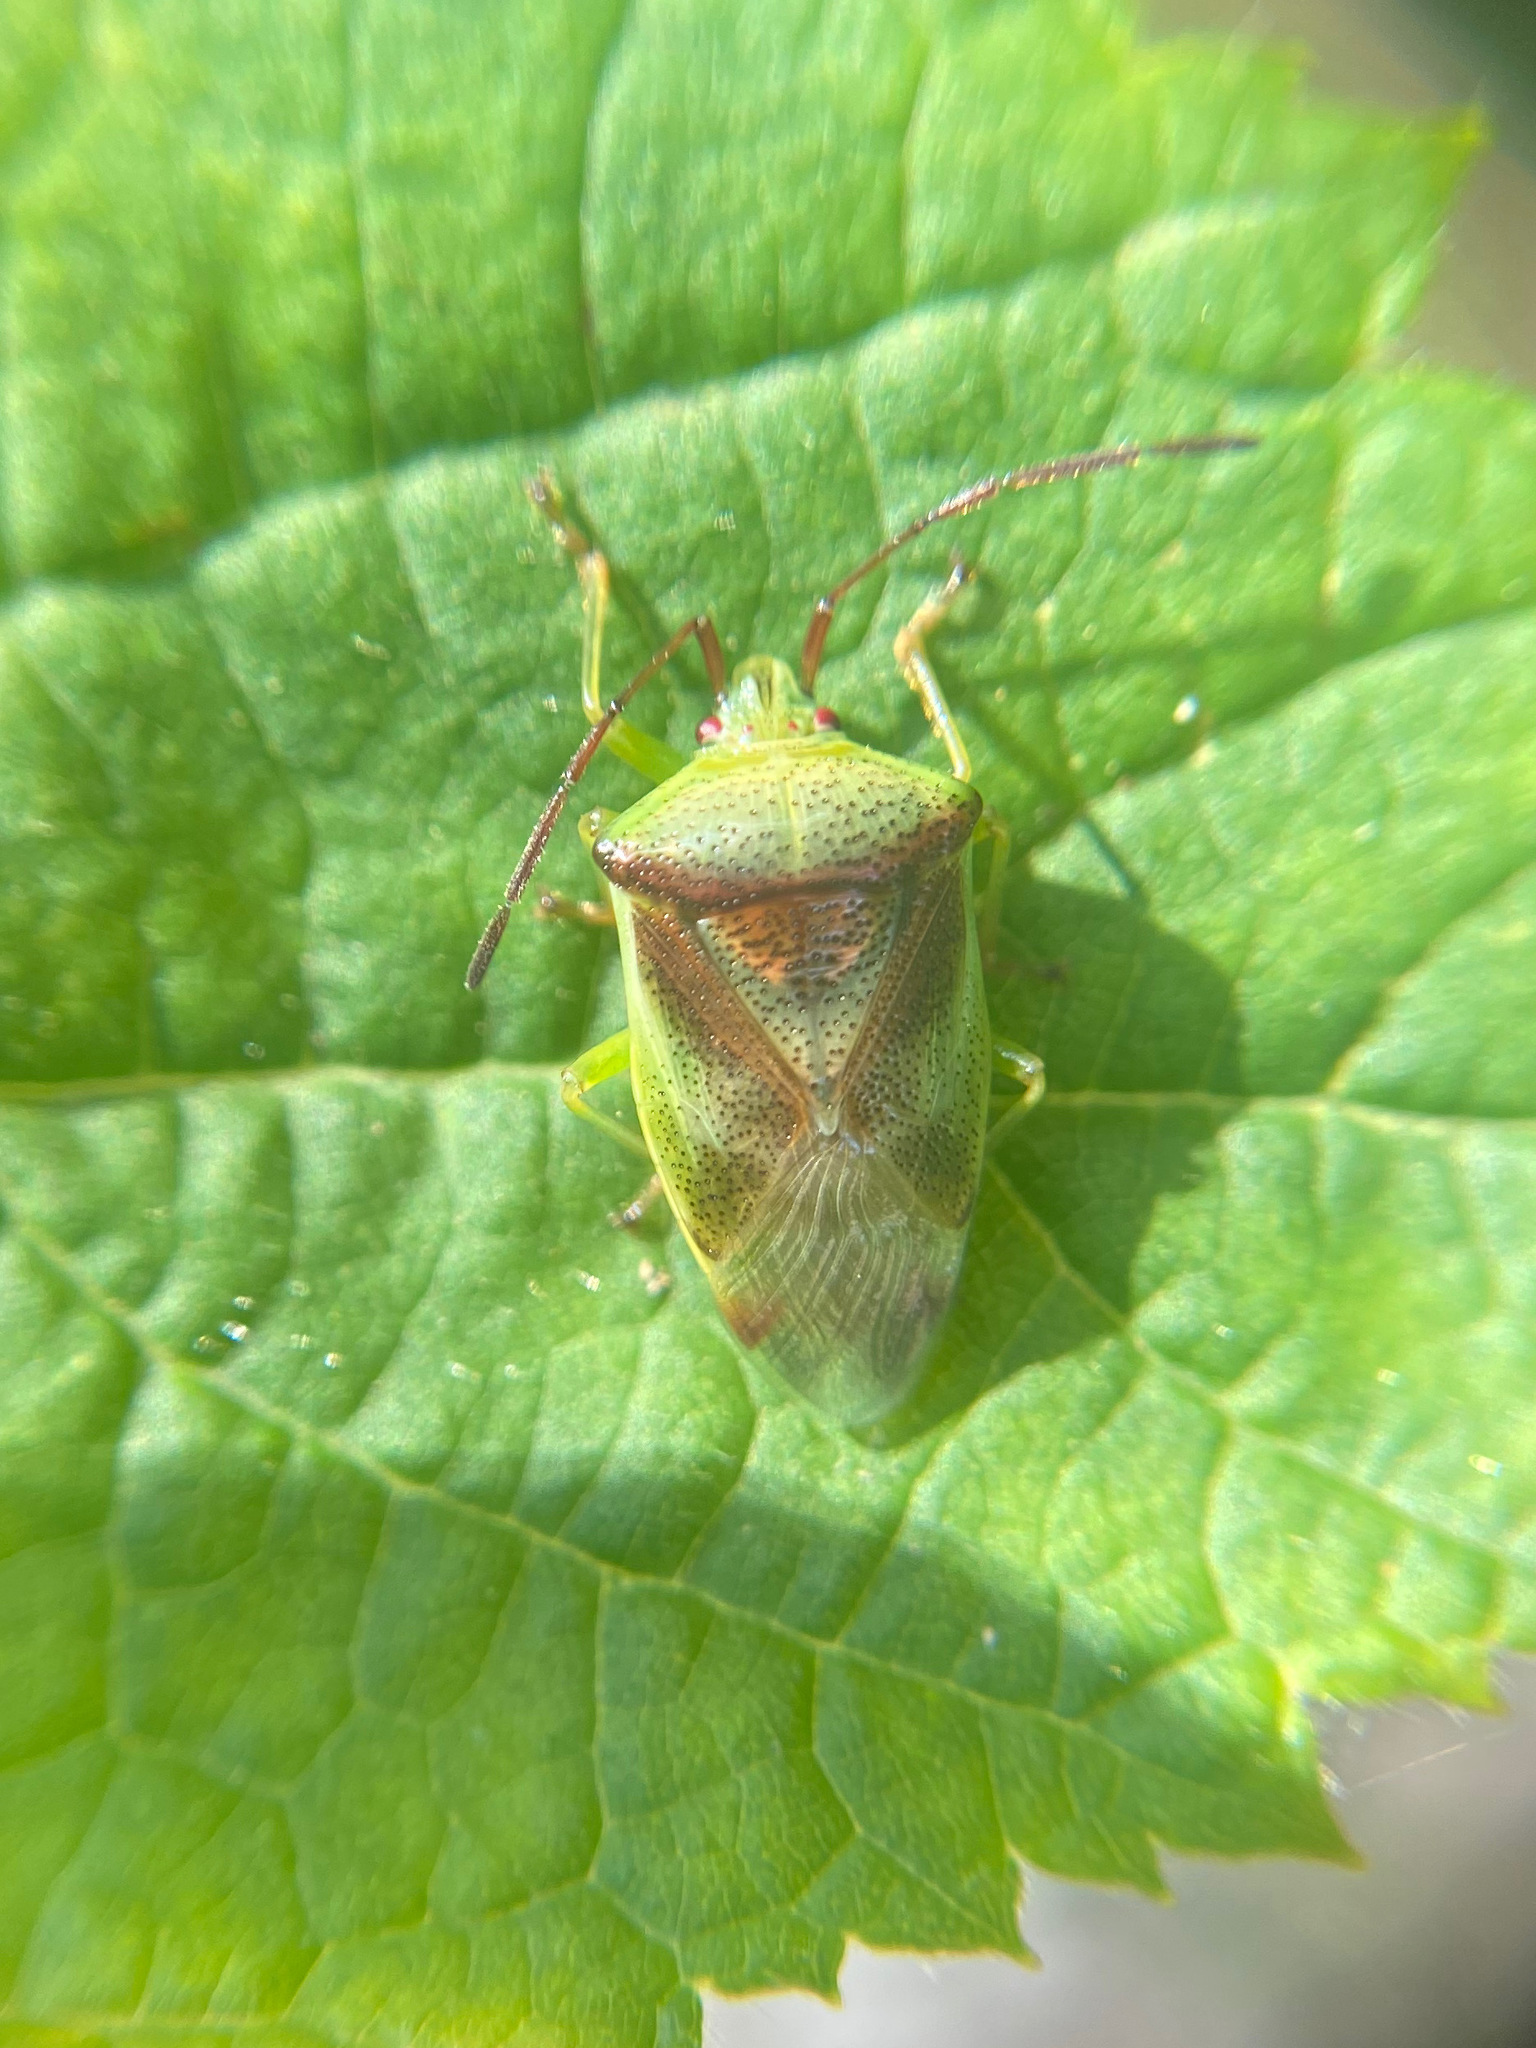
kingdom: Animalia
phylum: Arthropoda
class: Insecta
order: Hemiptera
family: Acanthosomatidae
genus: Elasmostethus
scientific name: Elasmostethus cruciatus
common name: Red-cross shield bug
